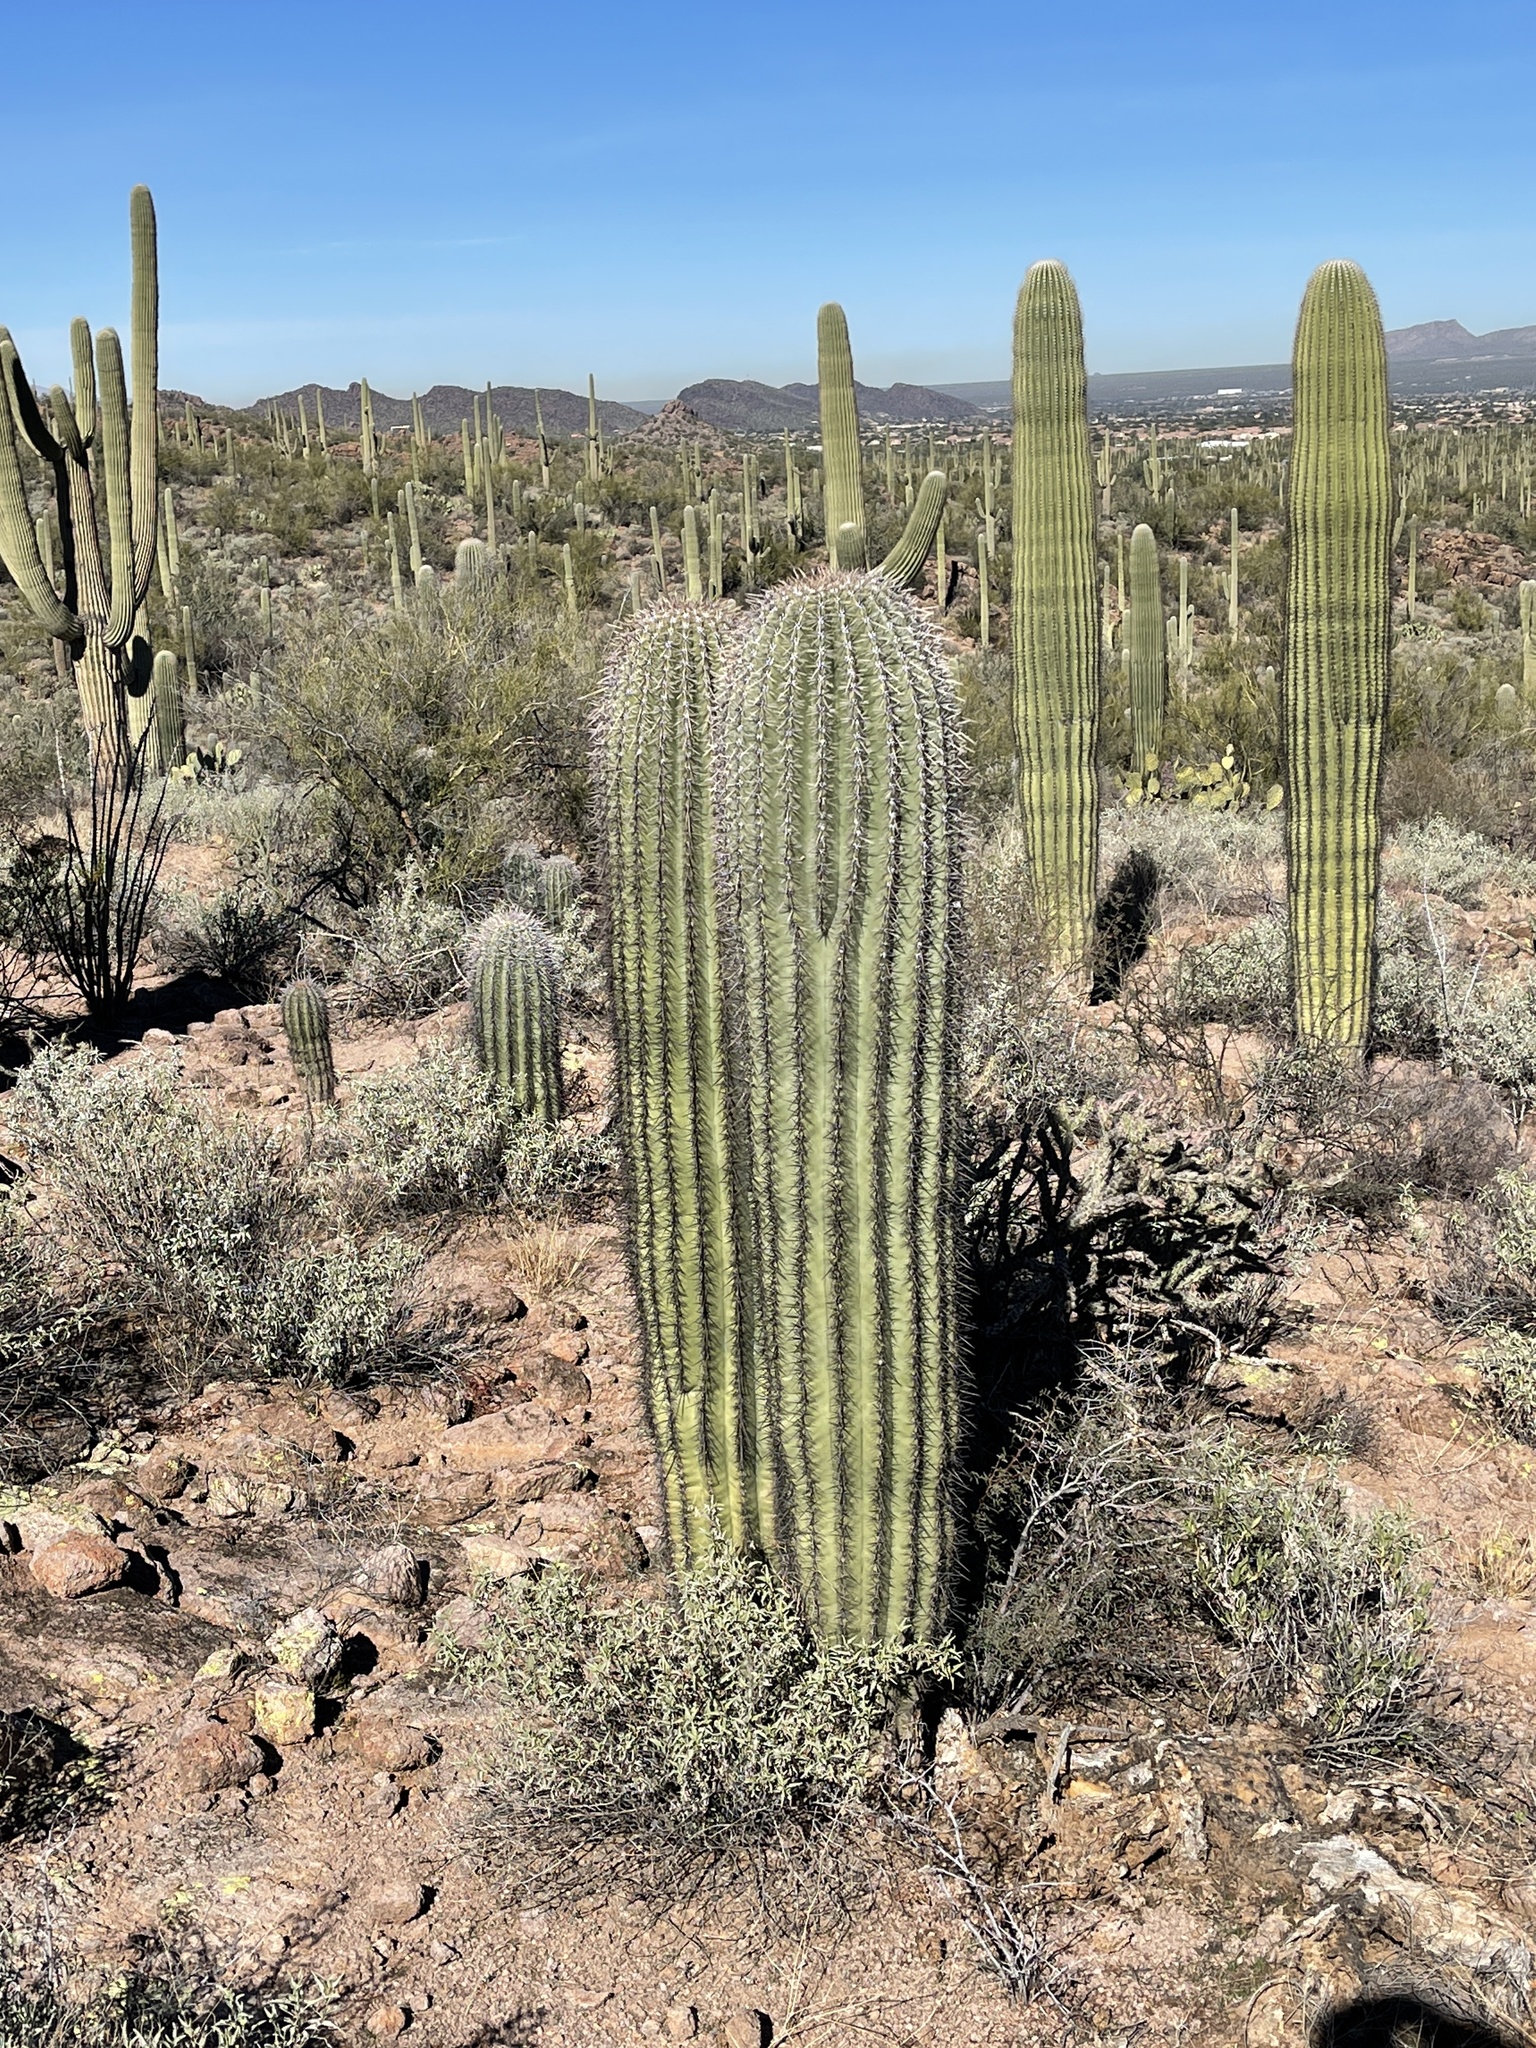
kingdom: Plantae
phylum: Tracheophyta
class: Magnoliopsida
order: Caryophyllales
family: Cactaceae
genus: Carnegiea
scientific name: Carnegiea gigantea
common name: Saguaro
